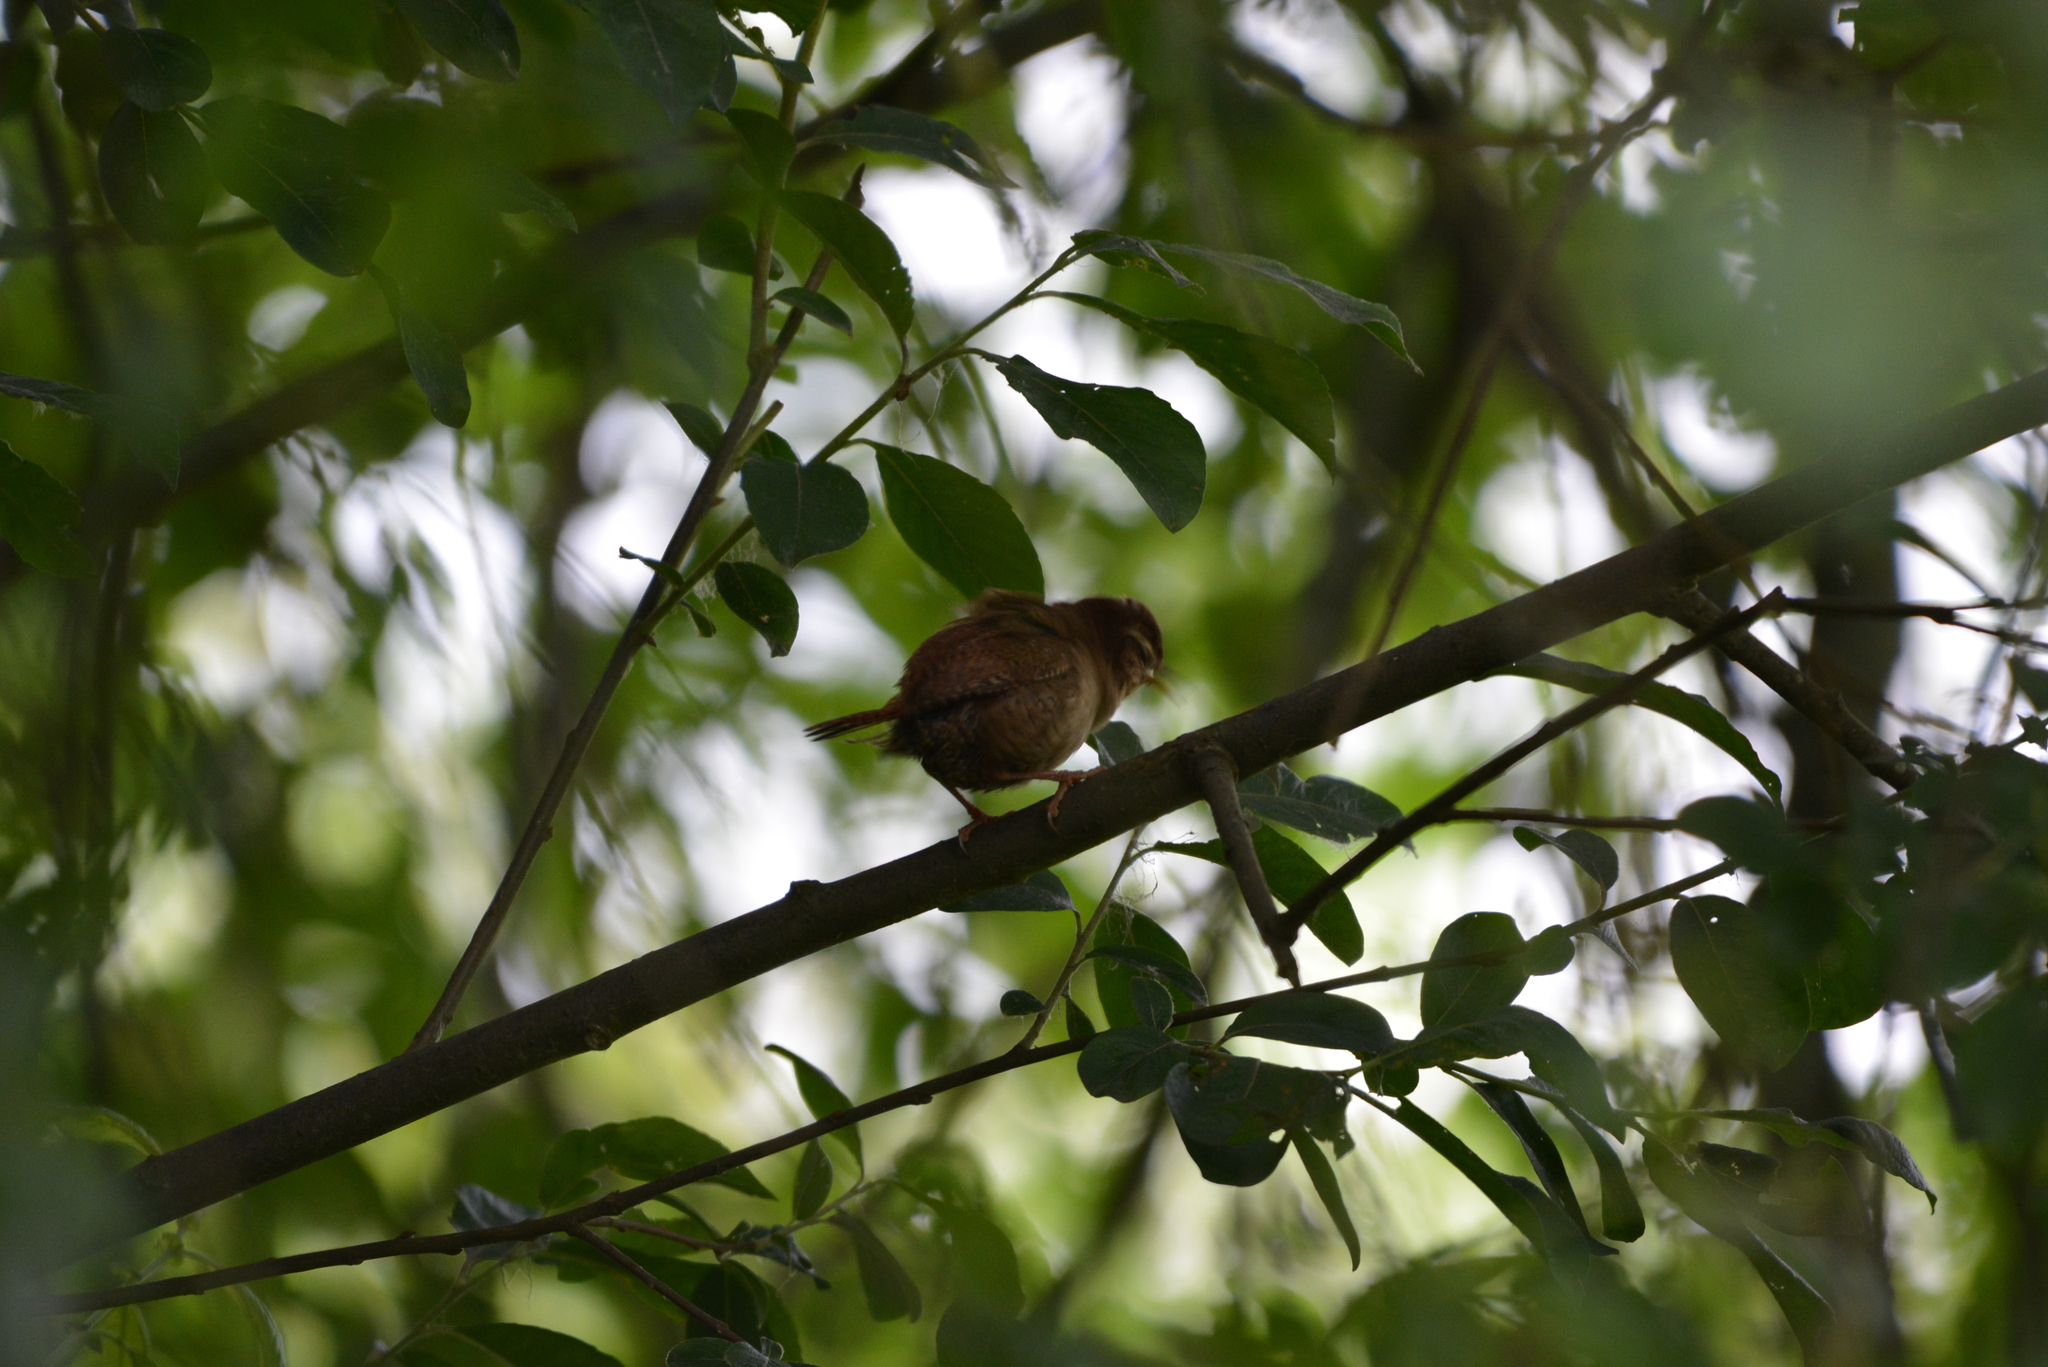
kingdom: Animalia
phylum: Chordata
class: Aves
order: Passeriformes
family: Troglodytidae
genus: Troglodytes
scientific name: Troglodytes troglodytes
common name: Eurasian wren
